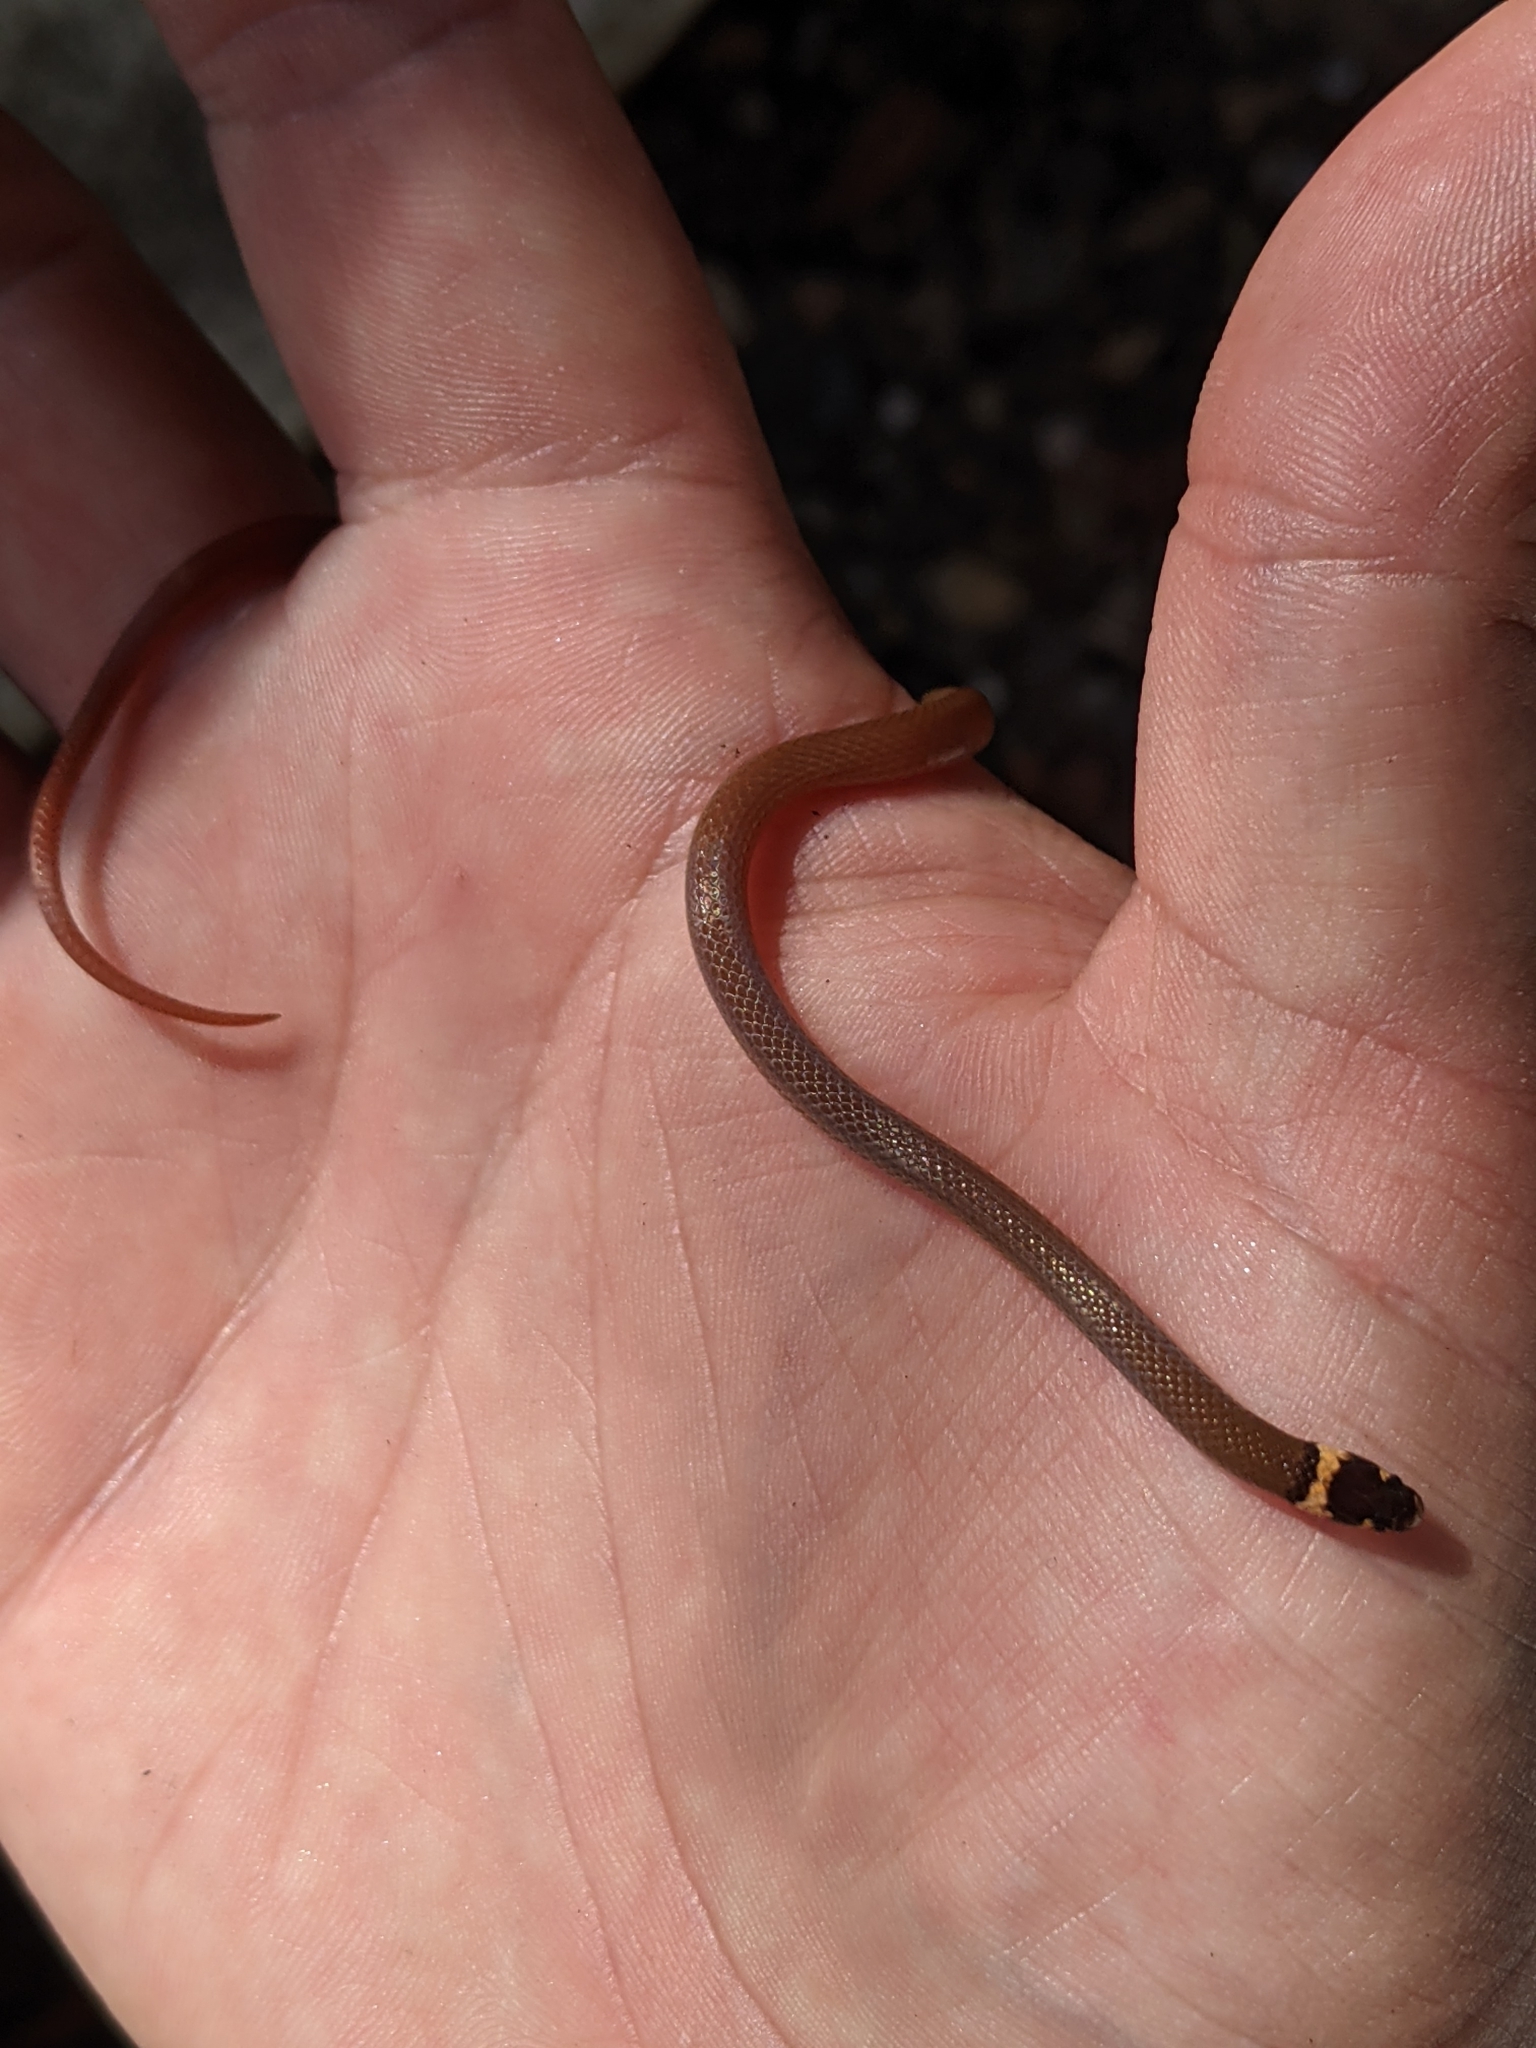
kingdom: Animalia
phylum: Chordata
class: Squamata
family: Colubridae
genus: Tantilla
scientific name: Tantilla bocourti
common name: Bocourt's black-headed snake
